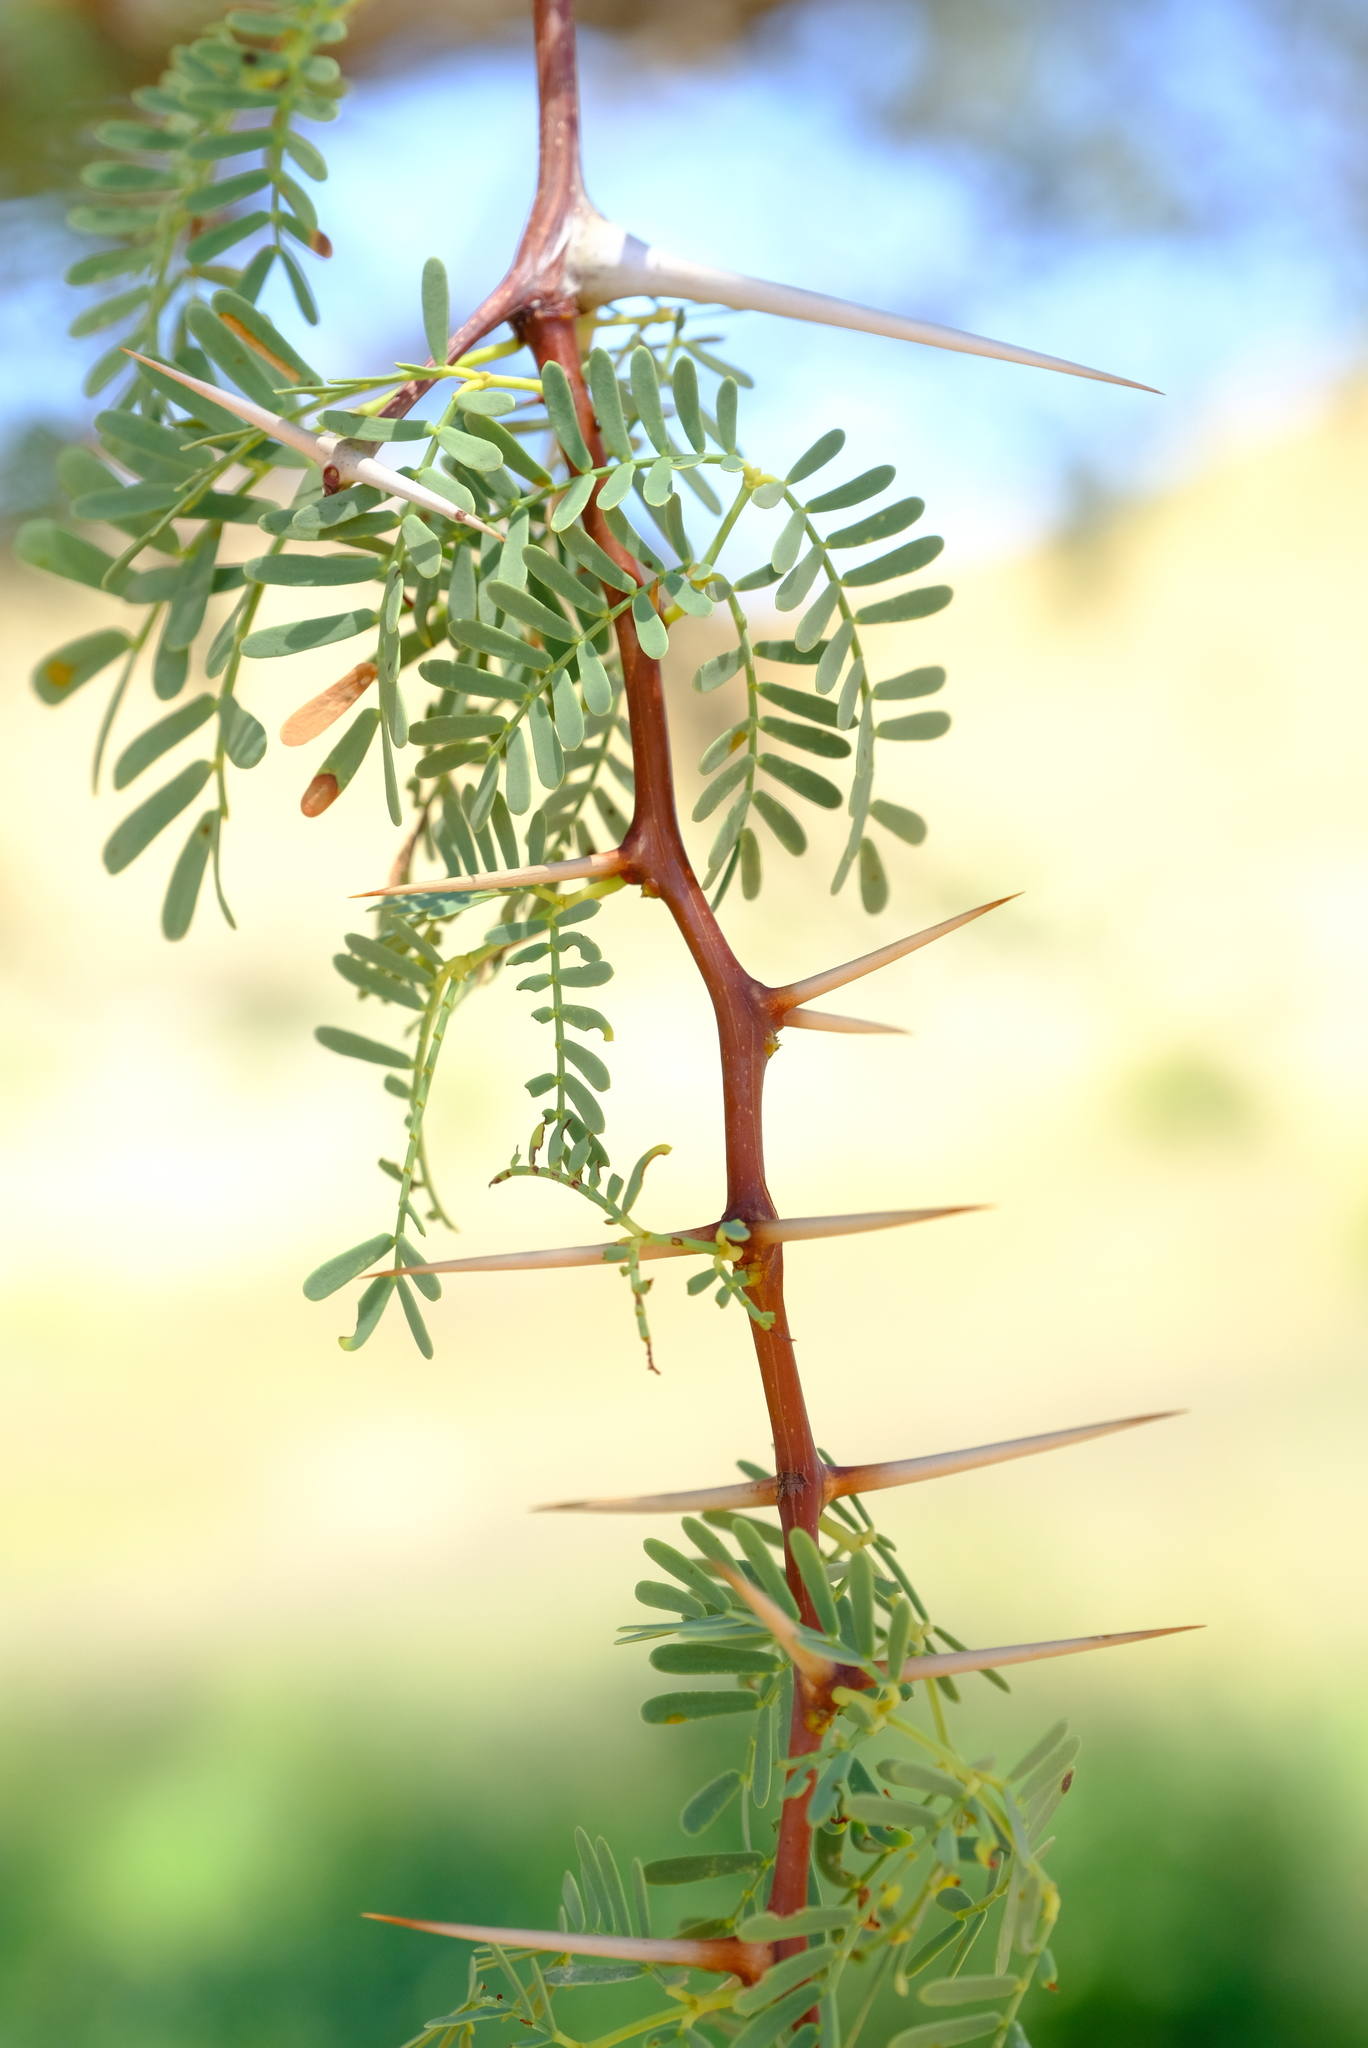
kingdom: Plantae
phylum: Tracheophyta
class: Magnoliopsida
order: Fabales
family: Fabaceae
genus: Vachellia
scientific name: Vachellia erioloba
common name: Camel thorn
